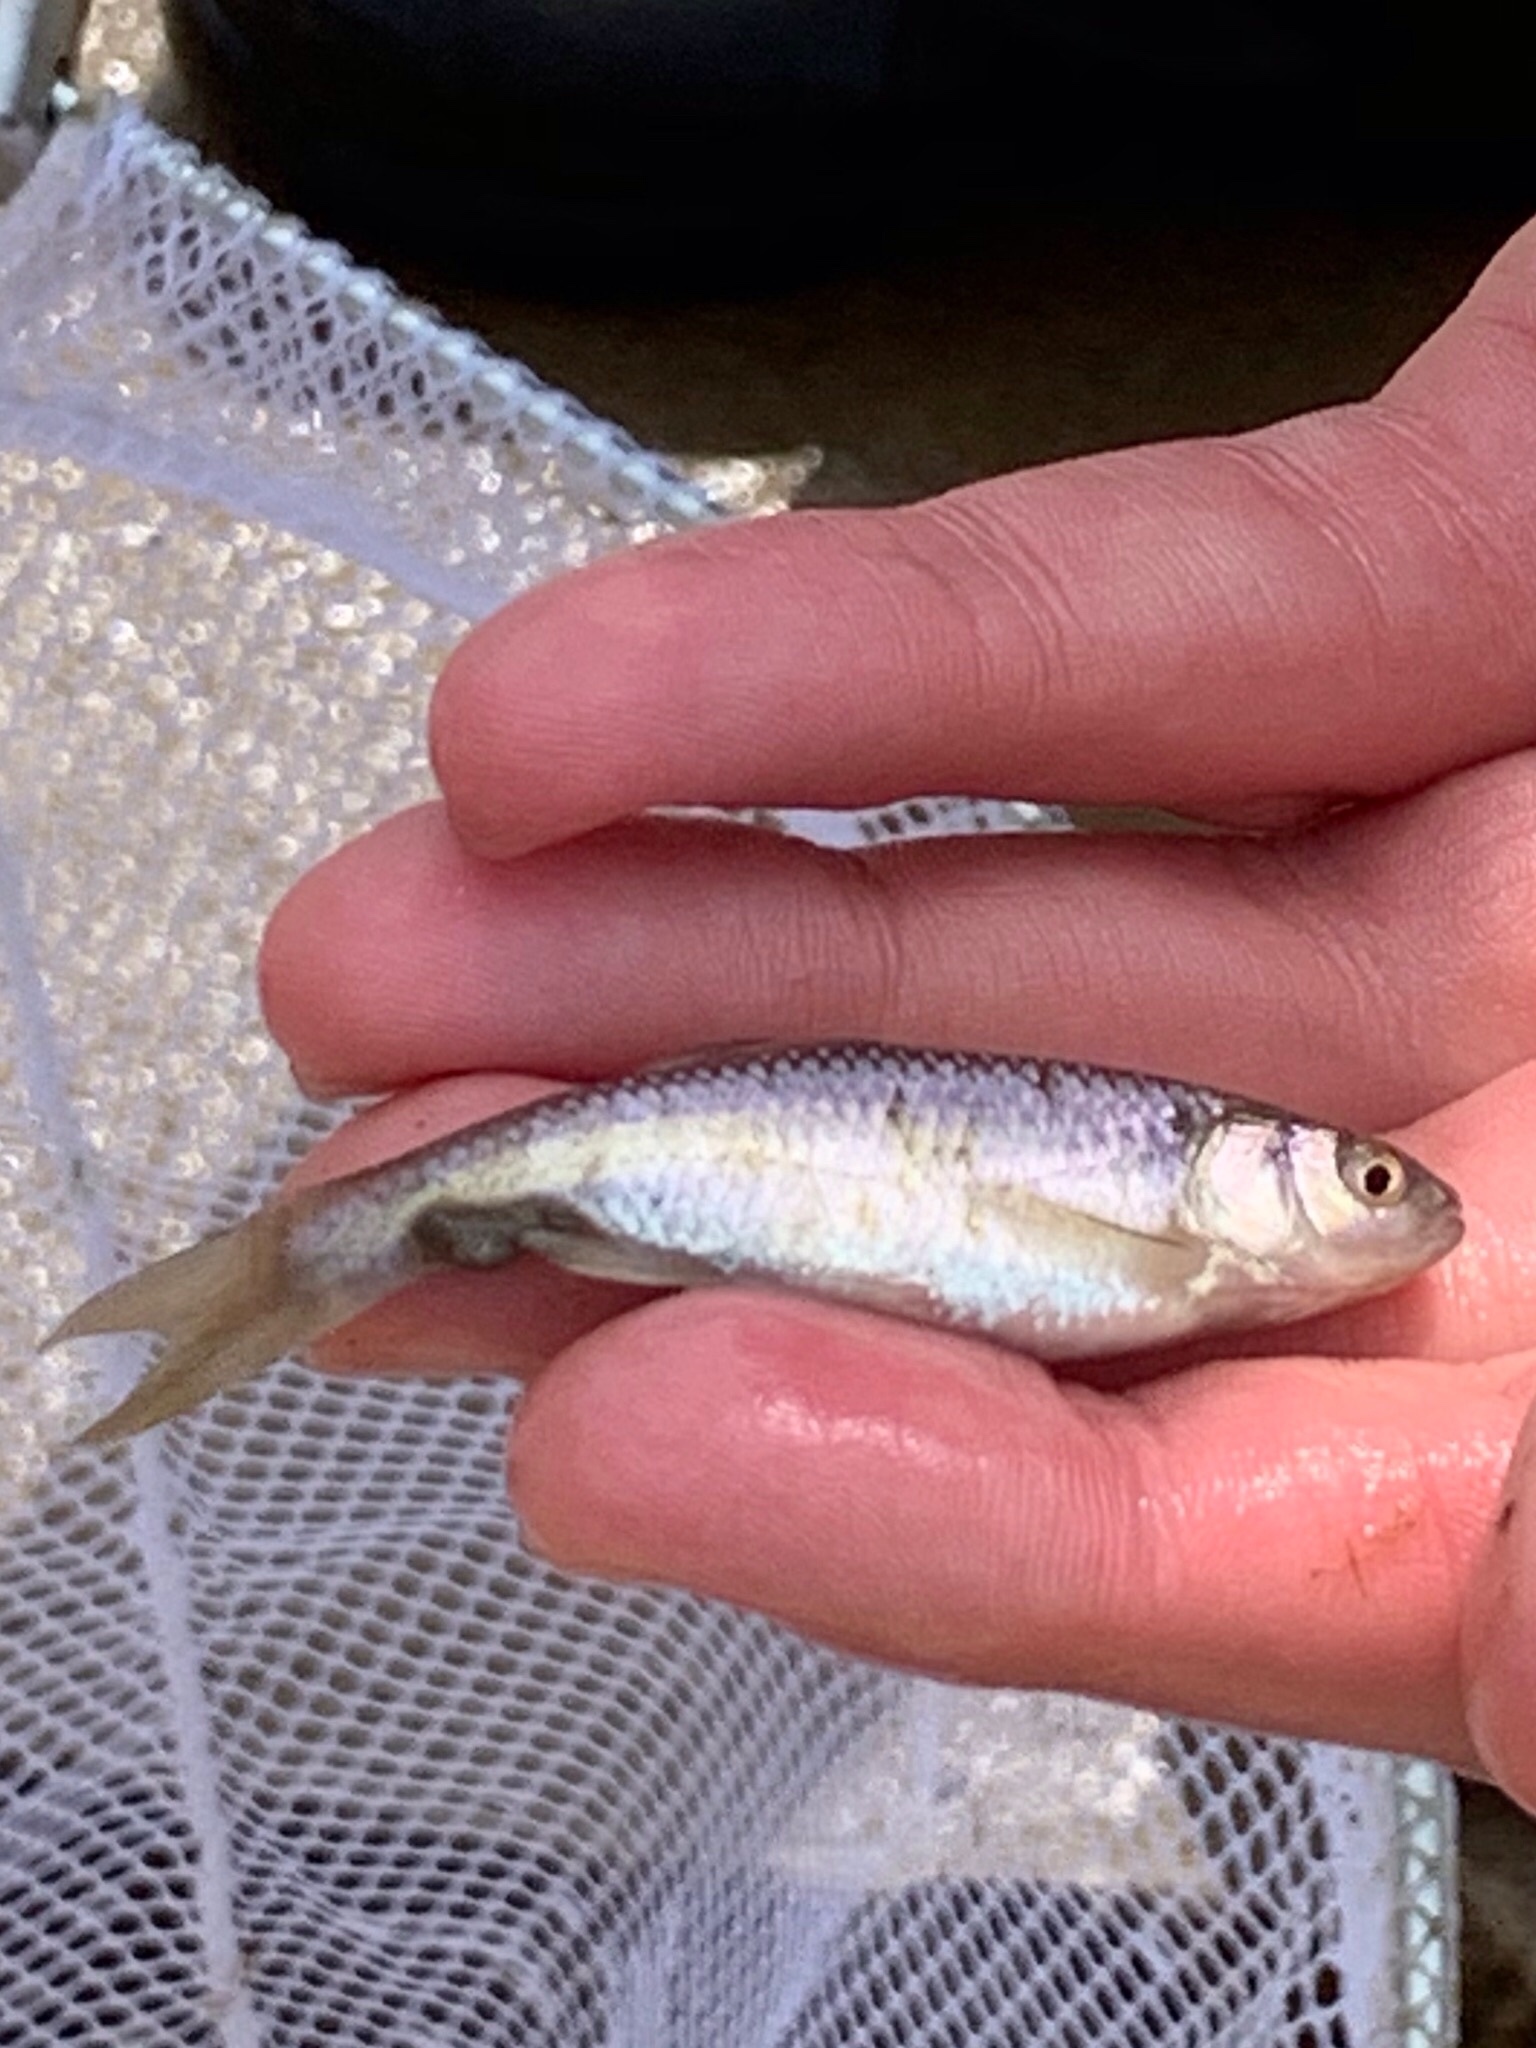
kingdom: Animalia
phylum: Chordata
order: Cypriniformes
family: Cyprinidae
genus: Luxilus
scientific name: Luxilus cornutus
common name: Common shiner
